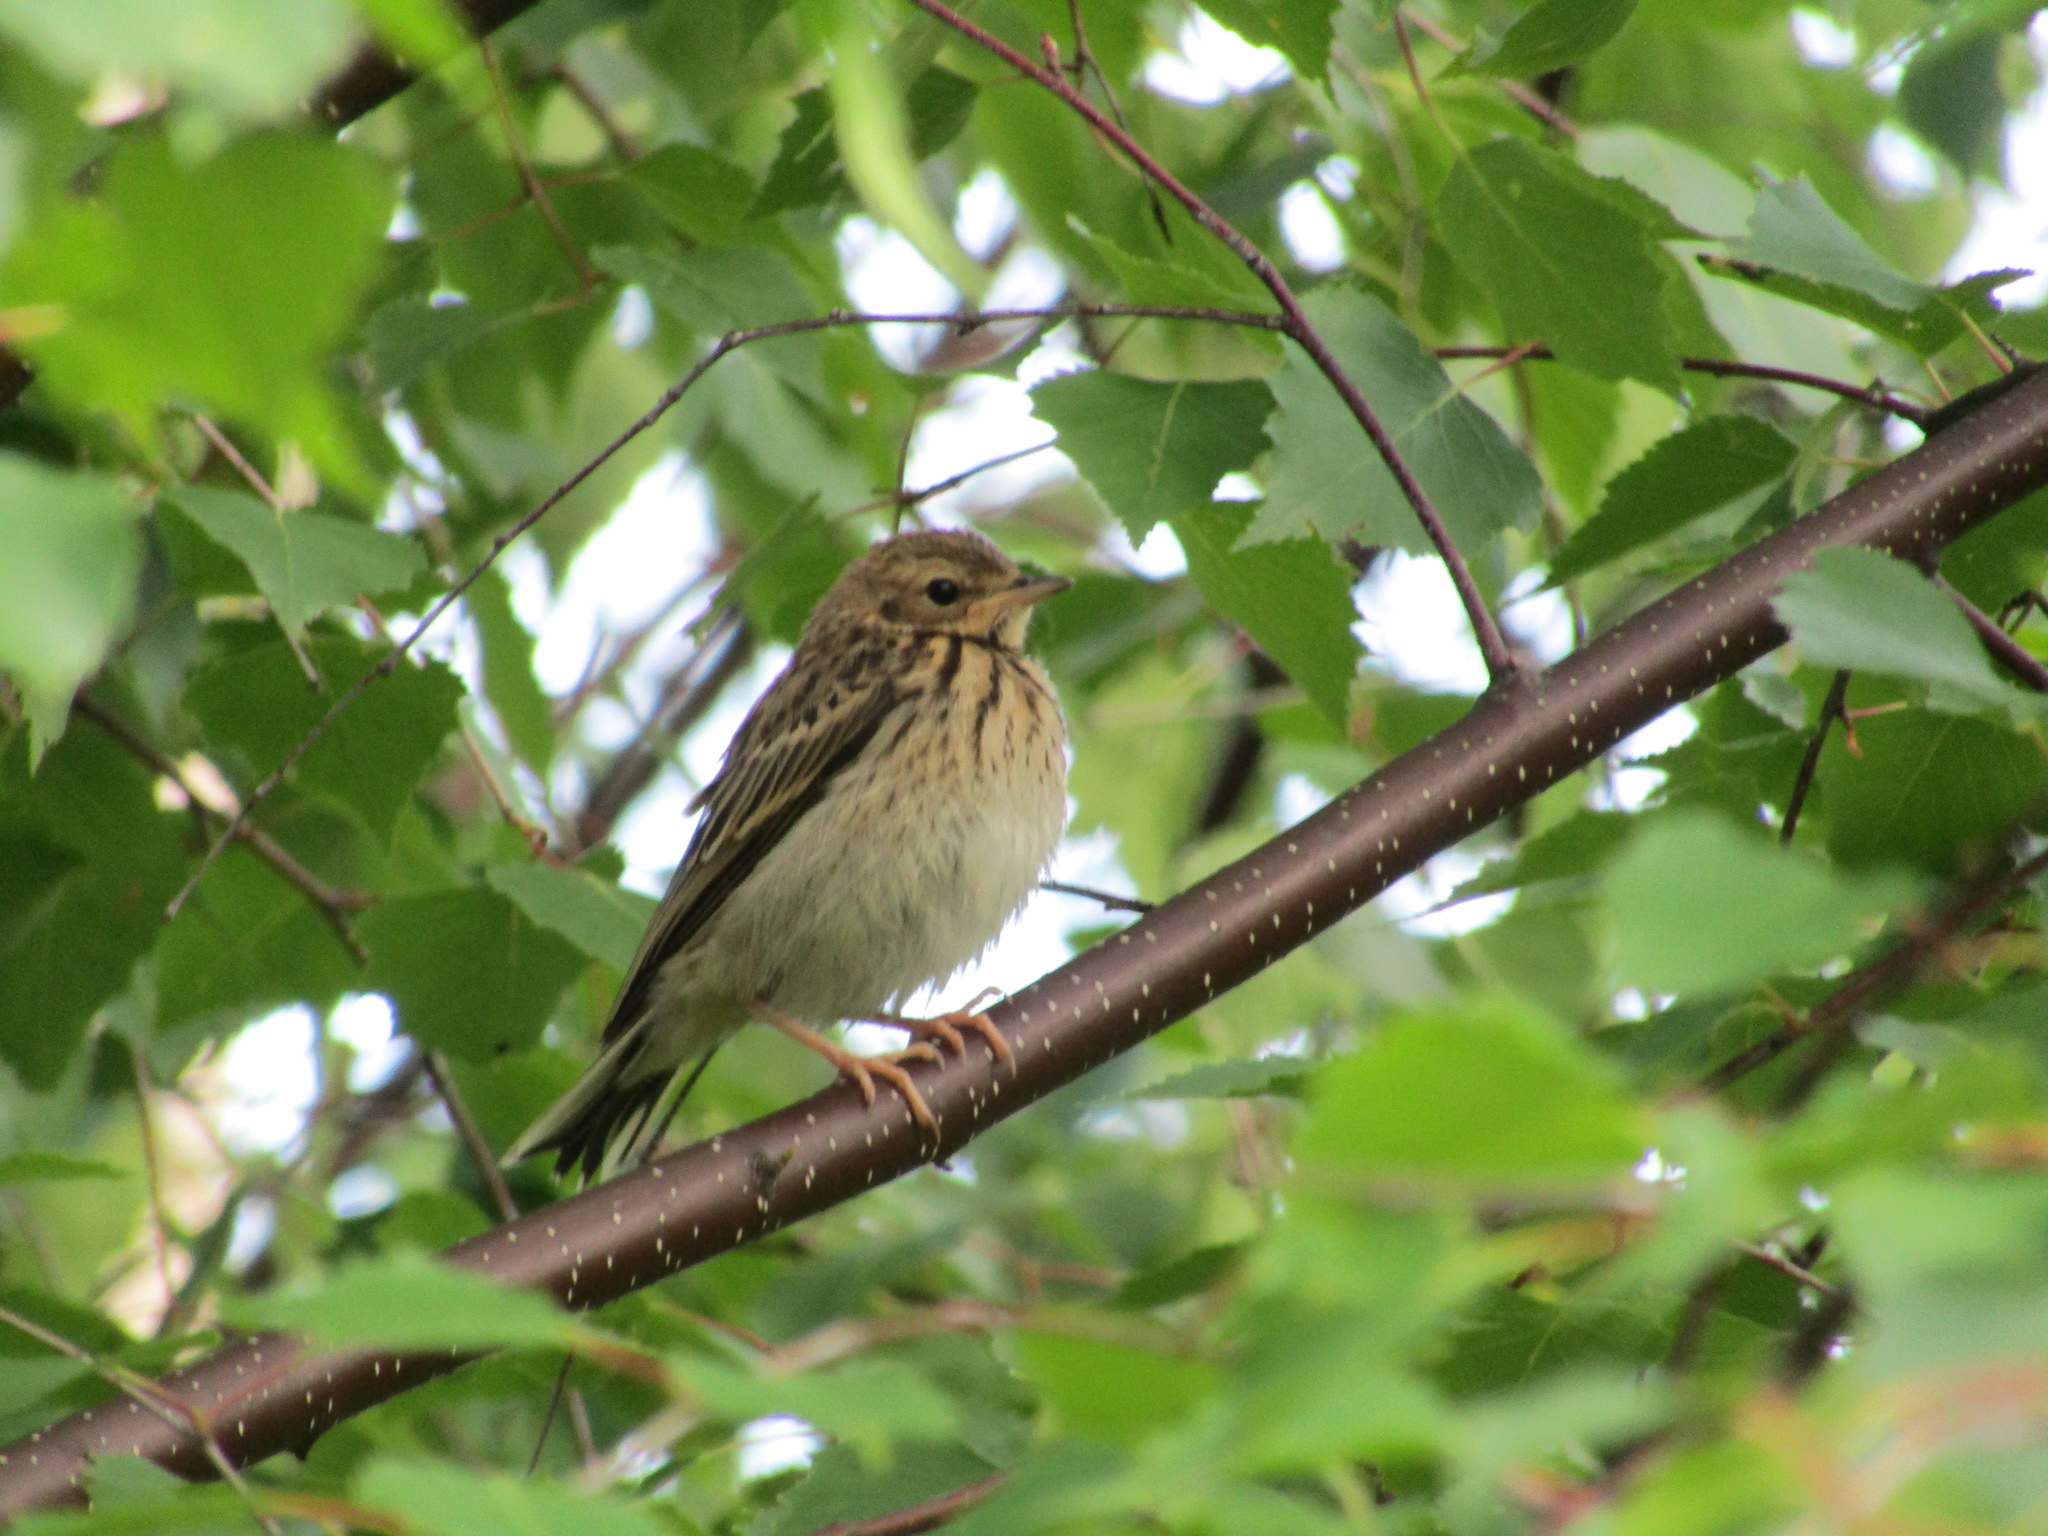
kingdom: Animalia
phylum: Chordata
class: Aves
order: Passeriformes
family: Motacillidae
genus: Anthus
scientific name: Anthus trivialis
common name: Tree pipit
